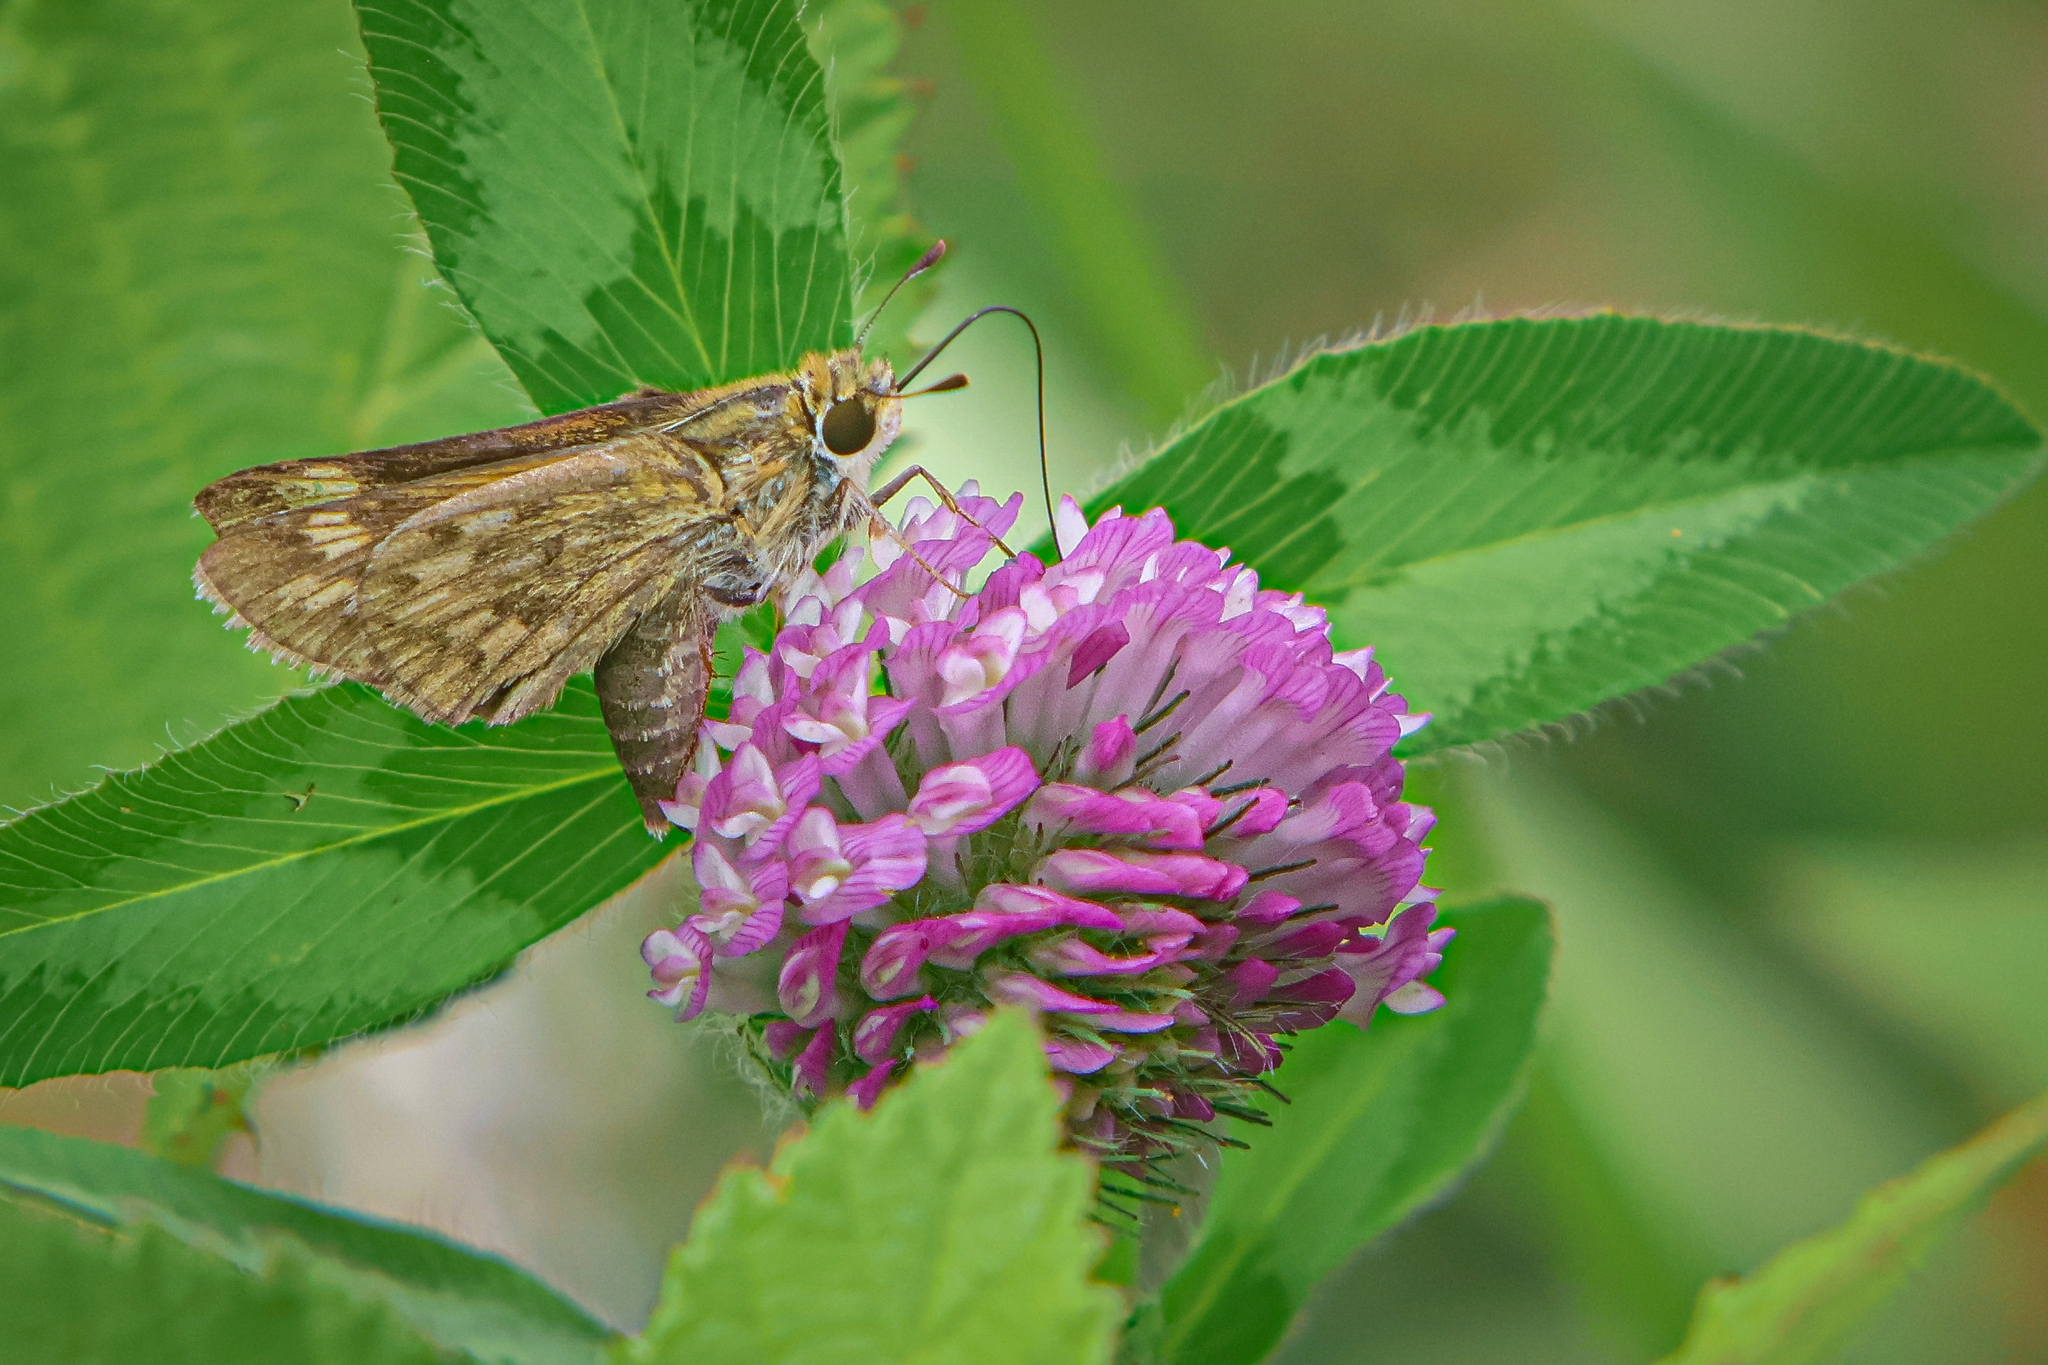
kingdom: Animalia
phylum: Arthropoda
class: Insecta
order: Lepidoptera
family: Hesperiidae
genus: Hylephila
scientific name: Hylephila phyleus
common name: Fiery skipper
